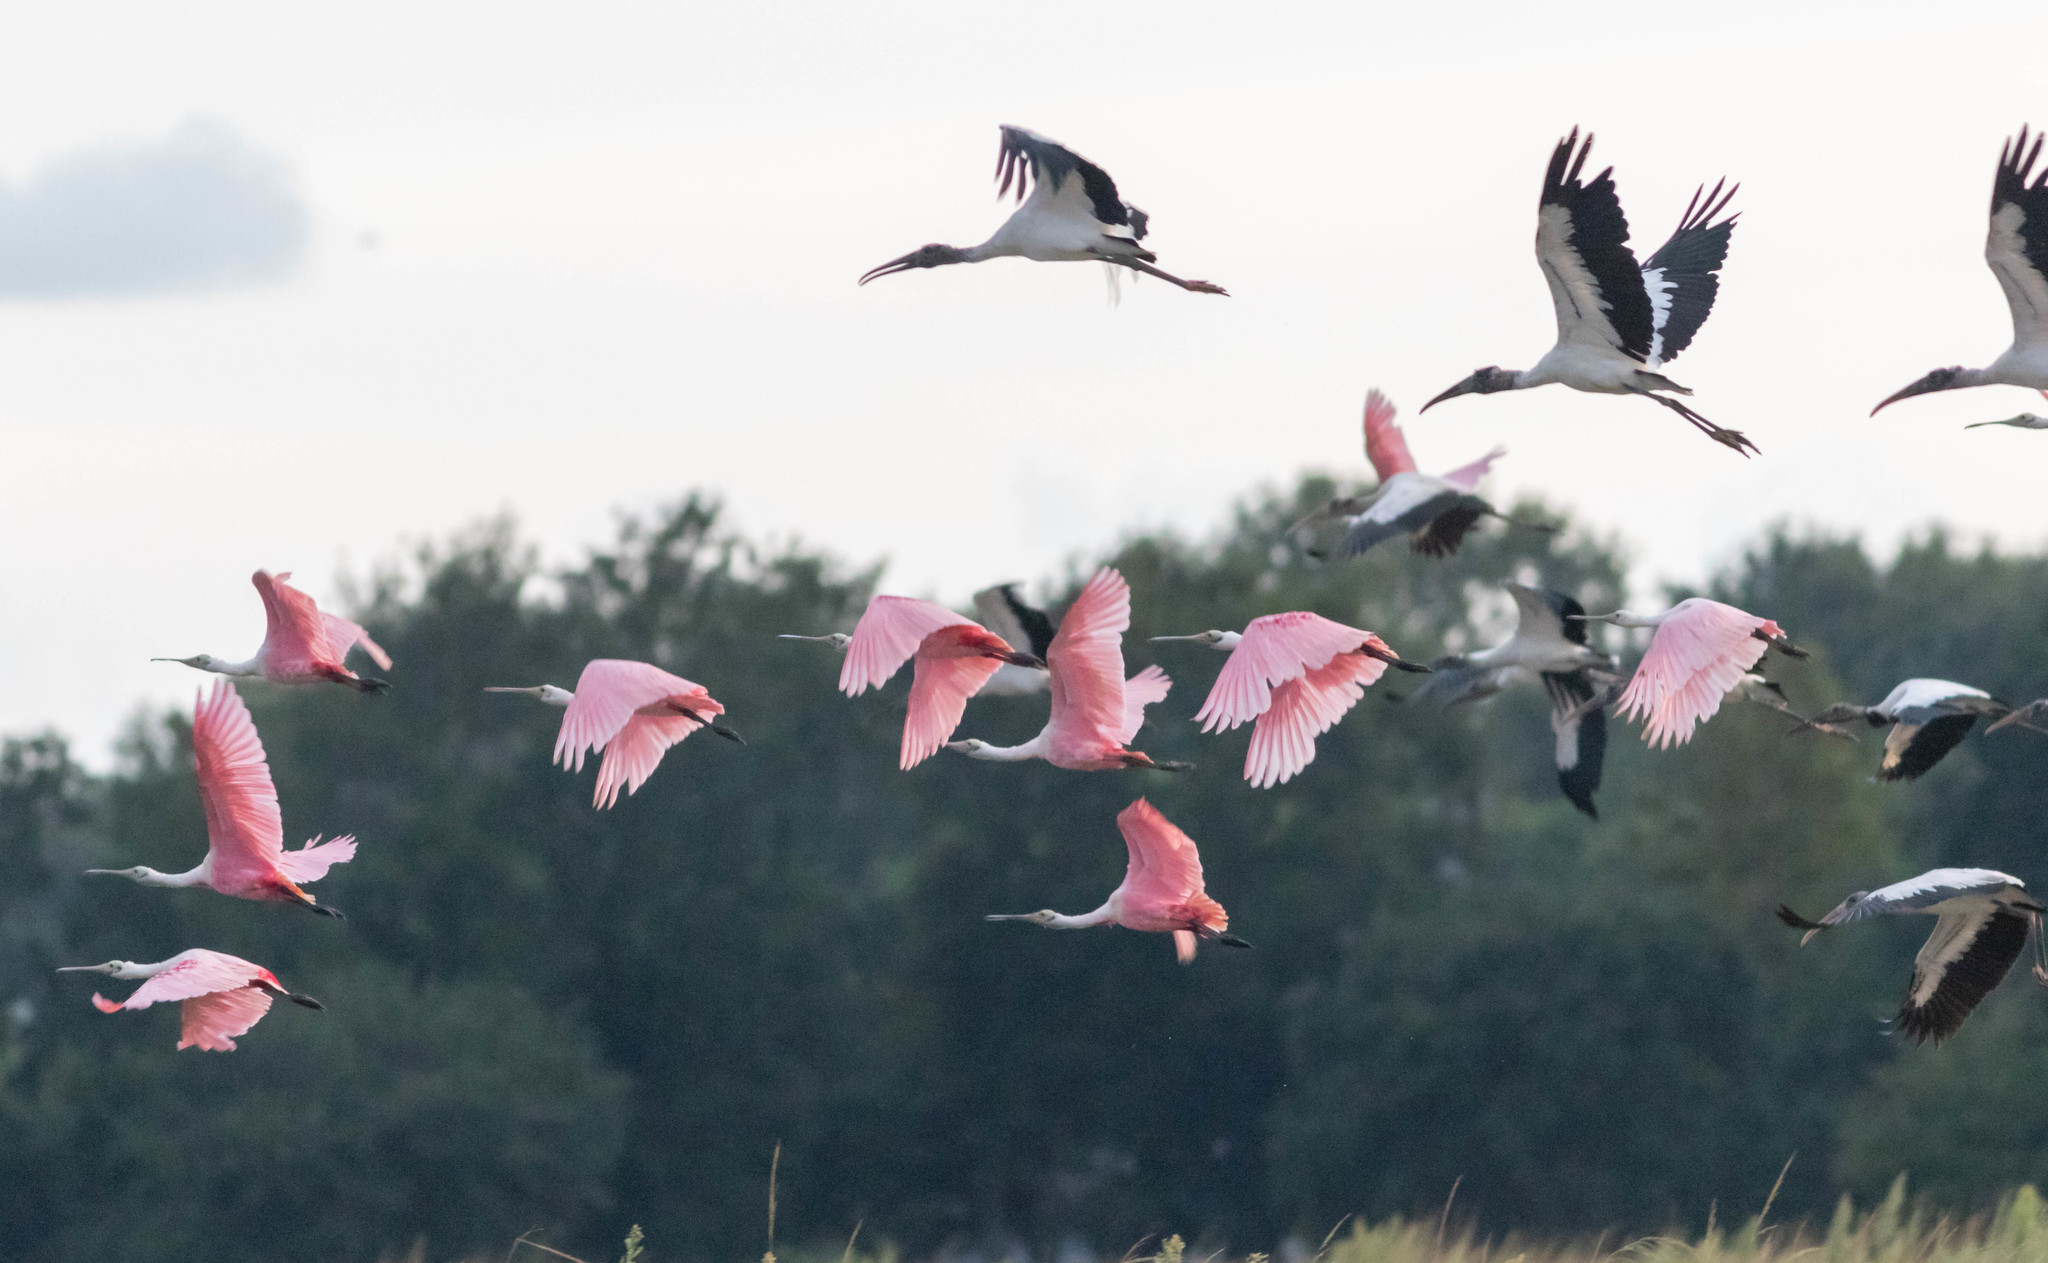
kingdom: Animalia
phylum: Chordata
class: Aves
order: Pelecaniformes
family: Threskiornithidae
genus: Platalea
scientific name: Platalea ajaja
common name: Roseate spoonbill
